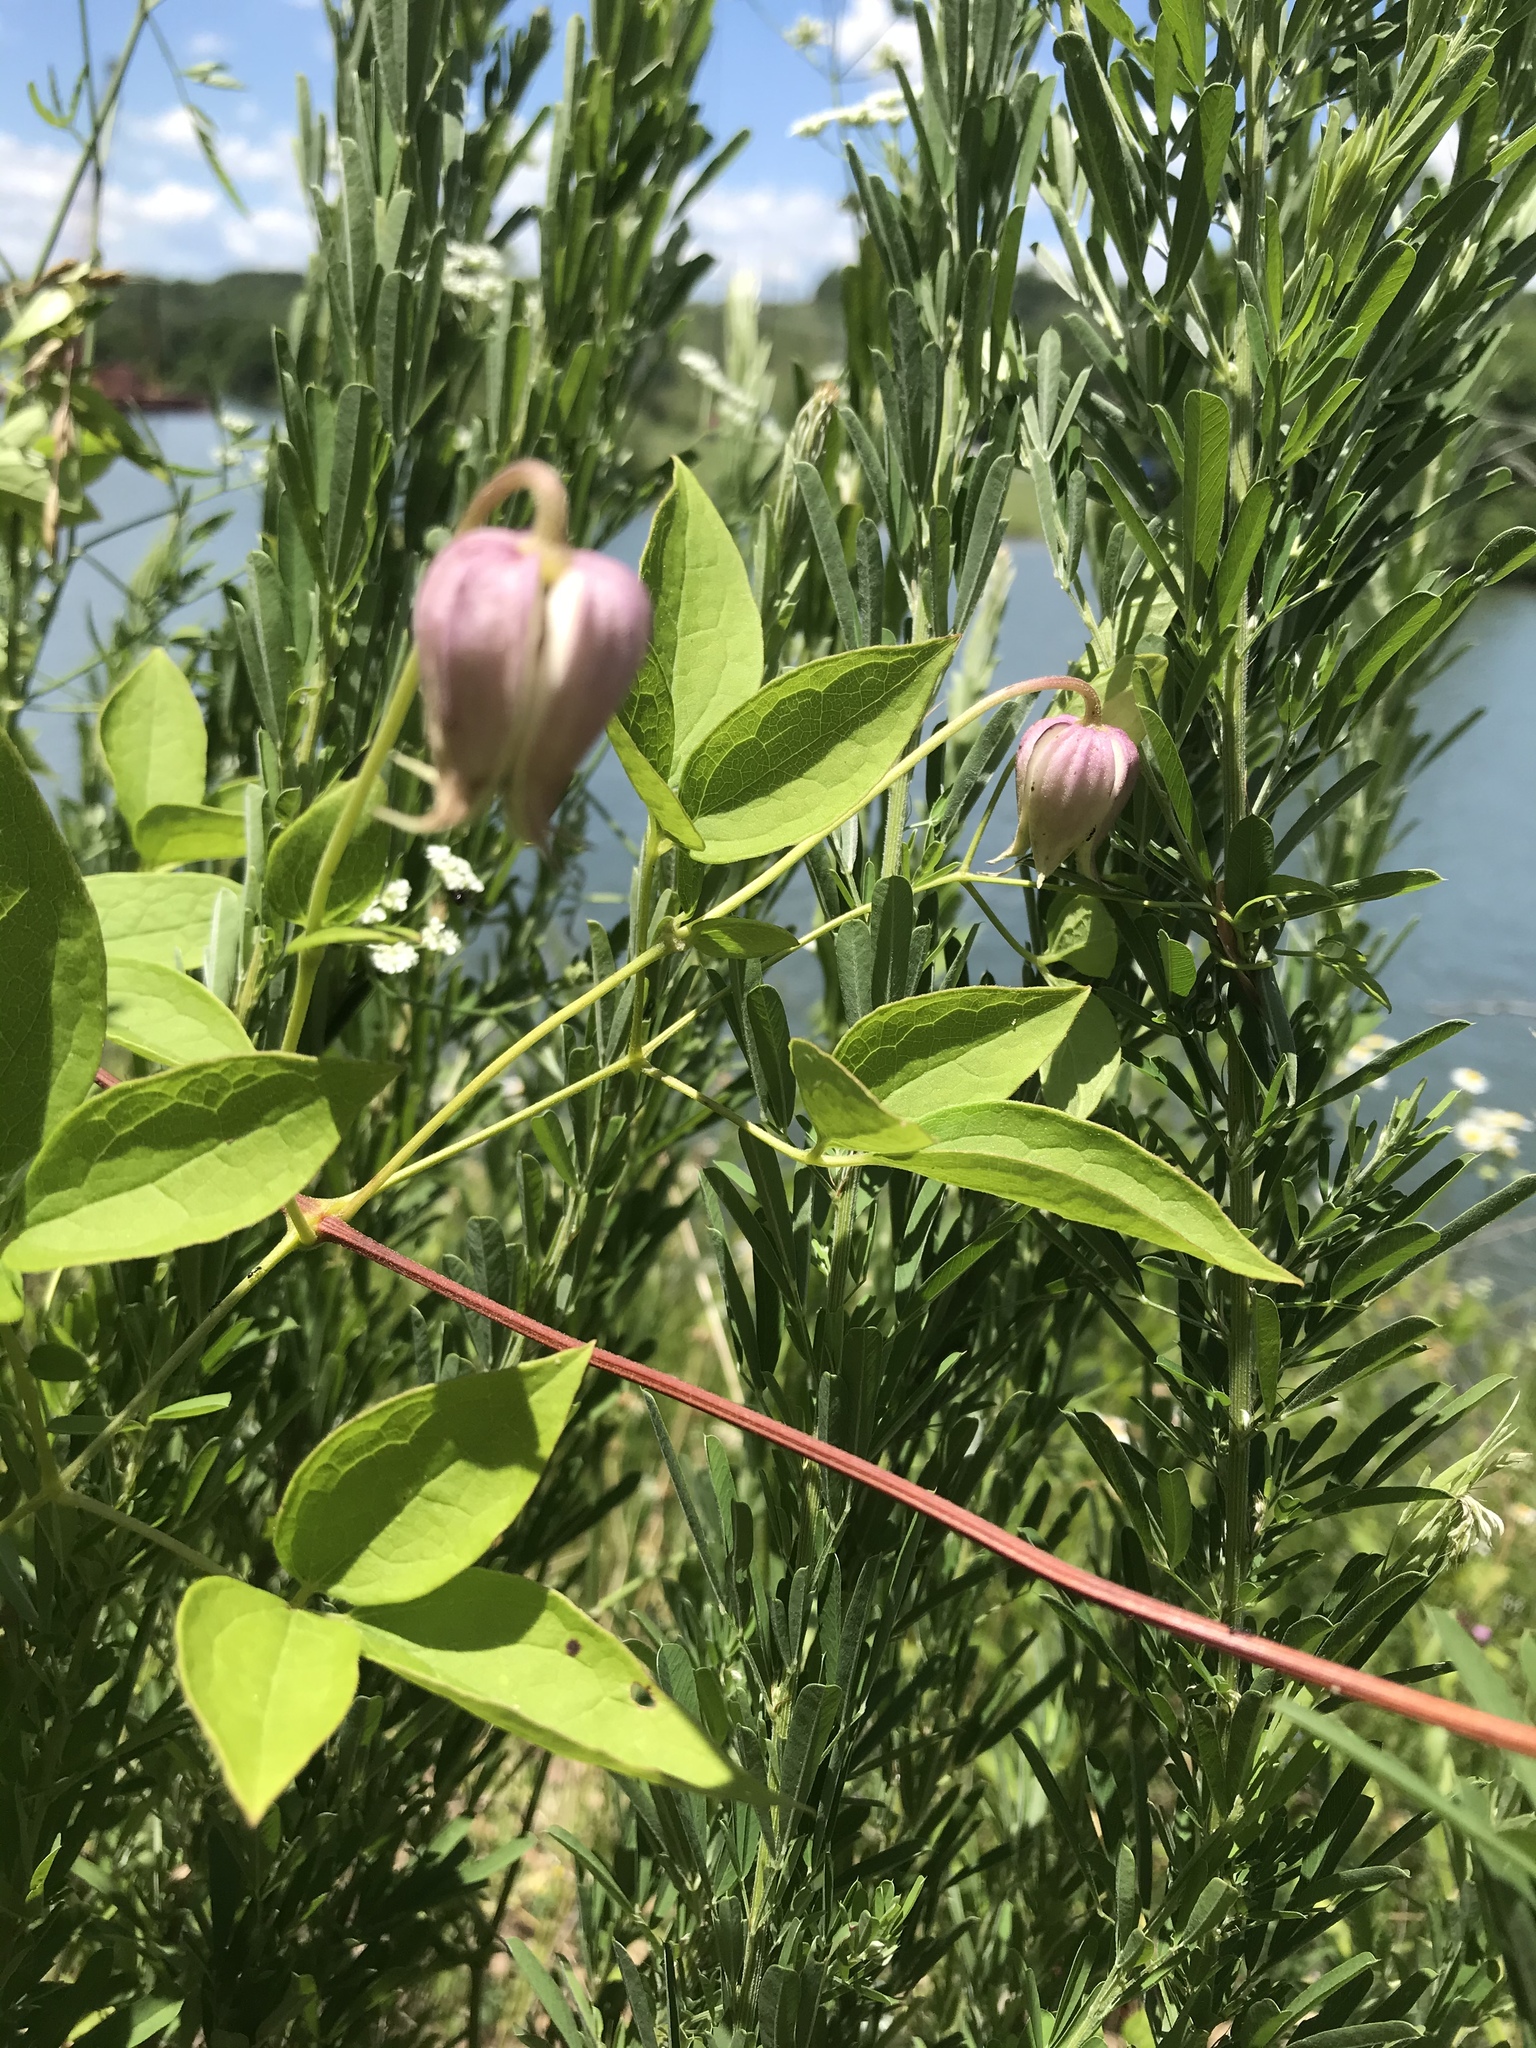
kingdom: Plantae
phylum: Tracheophyta
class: Magnoliopsida
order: Ranunculales
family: Ranunculaceae
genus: Clematis
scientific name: Clematis viorna
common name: Leather-flower
